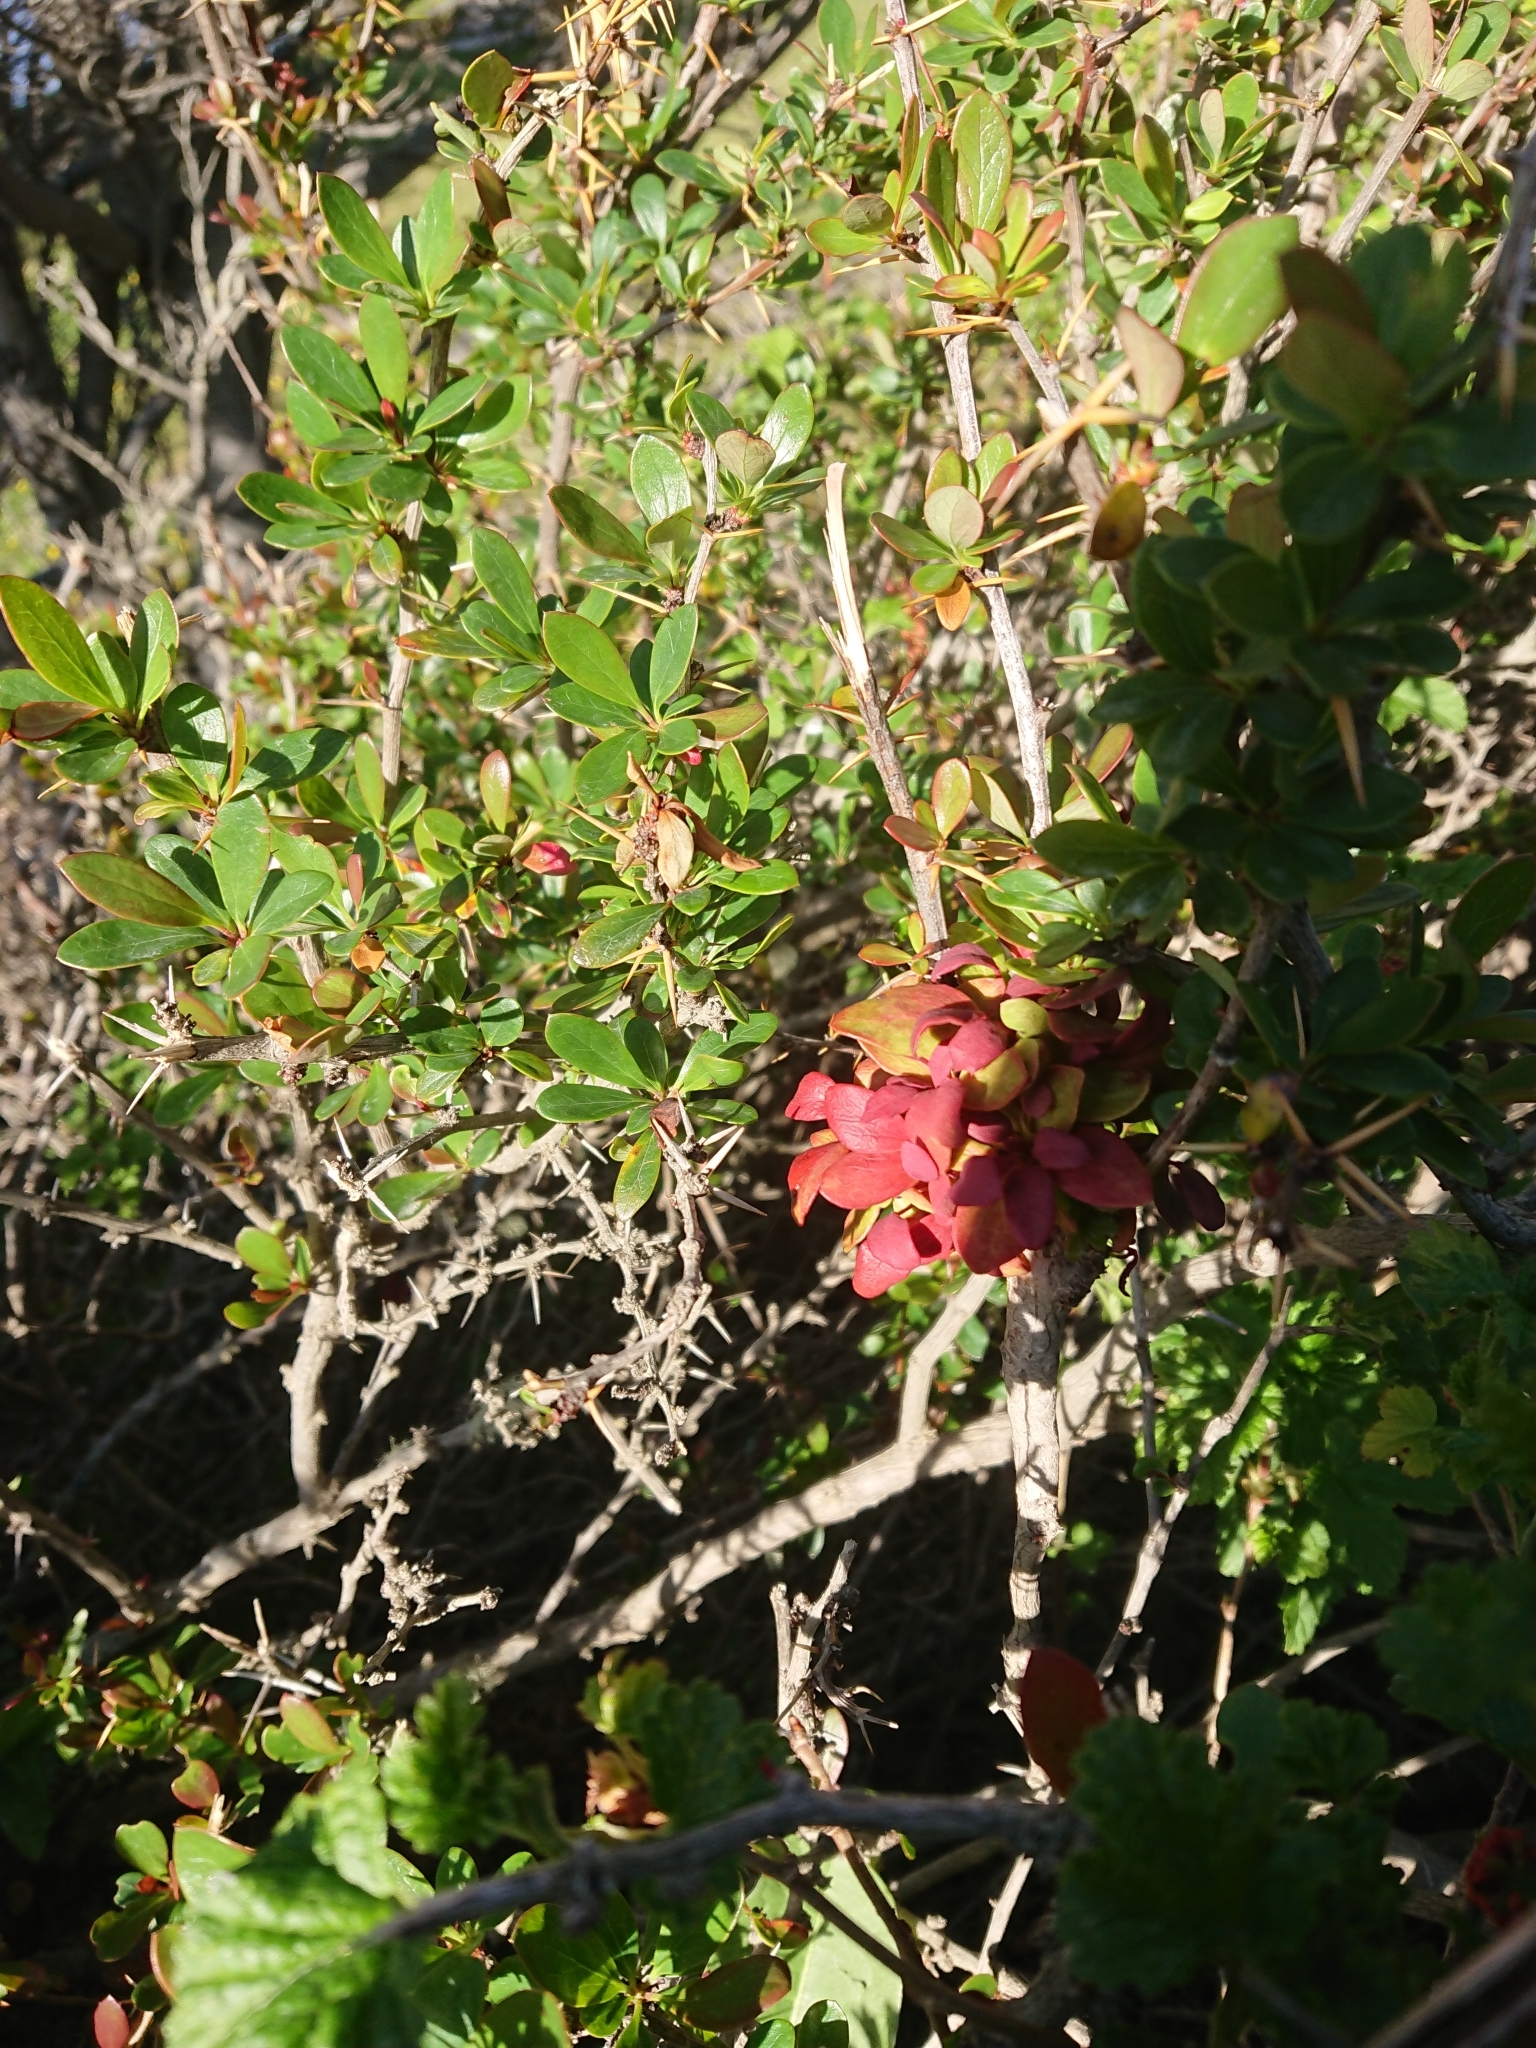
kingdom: Fungi
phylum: Basidiomycota
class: Pucciniomycetes
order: Pucciniales
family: Pucciniaceae
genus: Puccinia
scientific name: Puccinia magellanica
